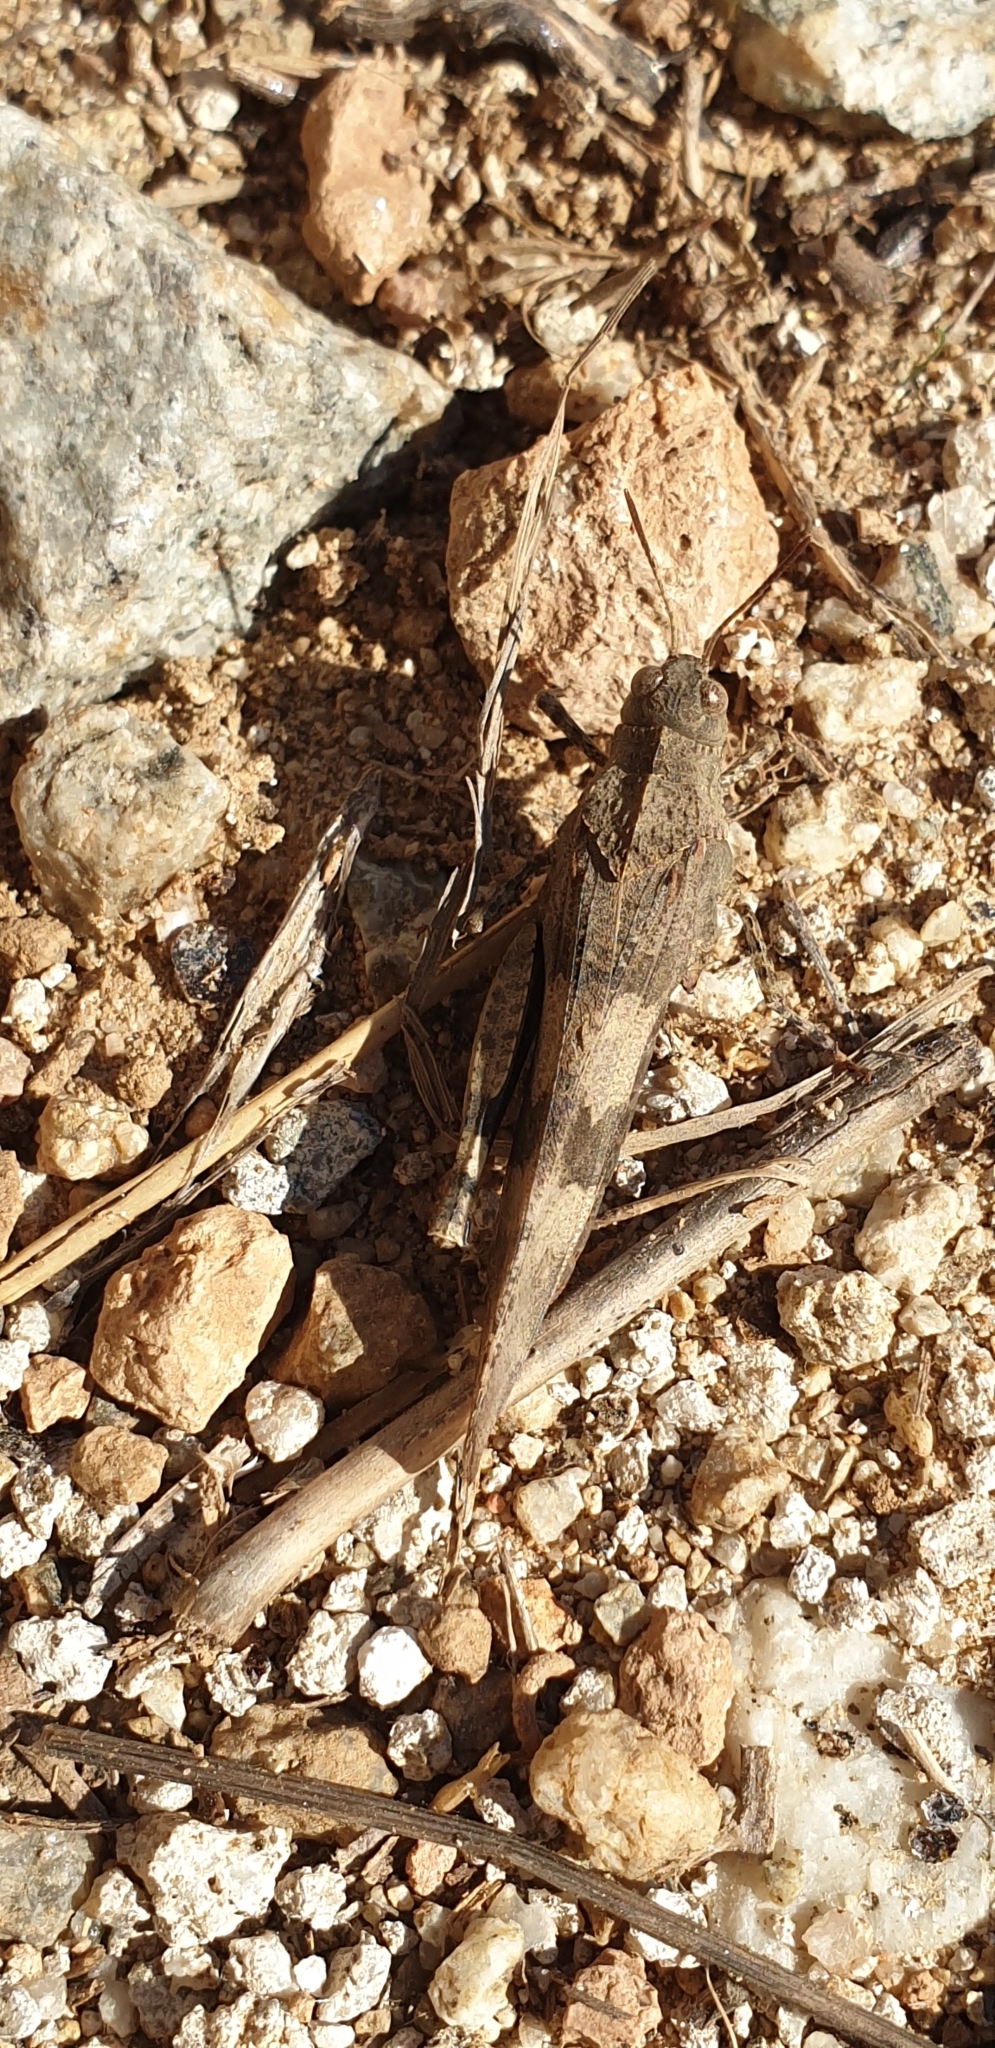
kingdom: Animalia
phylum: Arthropoda
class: Insecta
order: Orthoptera
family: Acrididae
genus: Oedipoda
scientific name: Oedipoda caerulescens
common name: Blue-winged grasshopper
